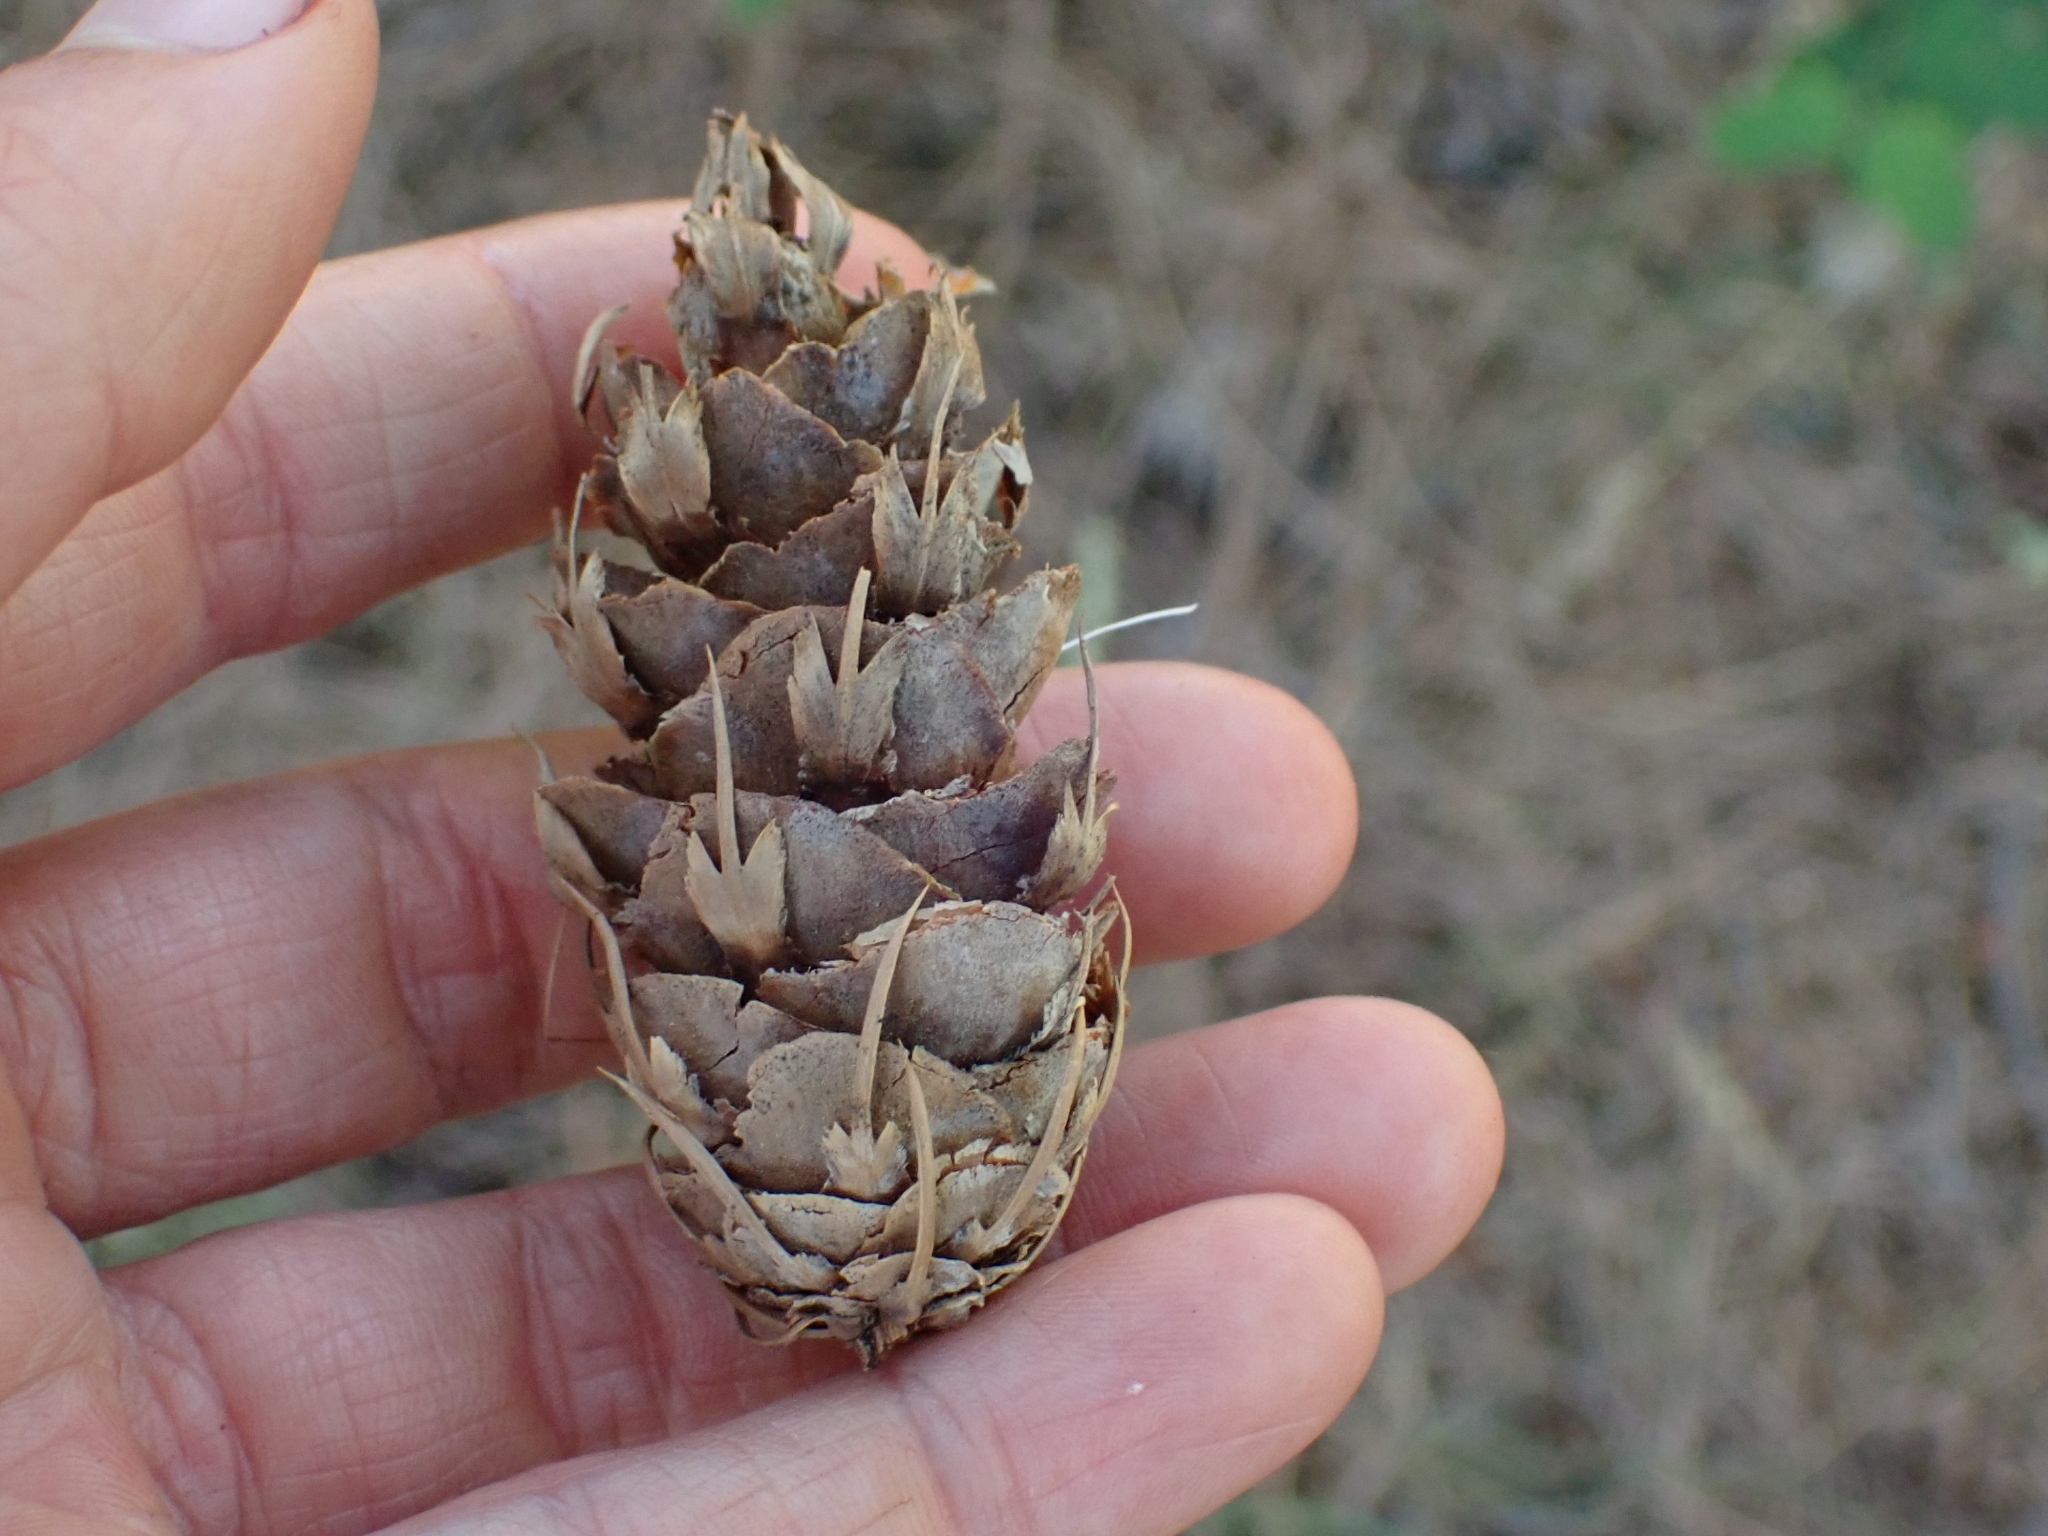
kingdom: Plantae
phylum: Tracheophyta
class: Pinopsida
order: Pinales
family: Pinaceae
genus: Pseudotsuga
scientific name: Pseudotsuga menziesii
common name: Douglas fir
